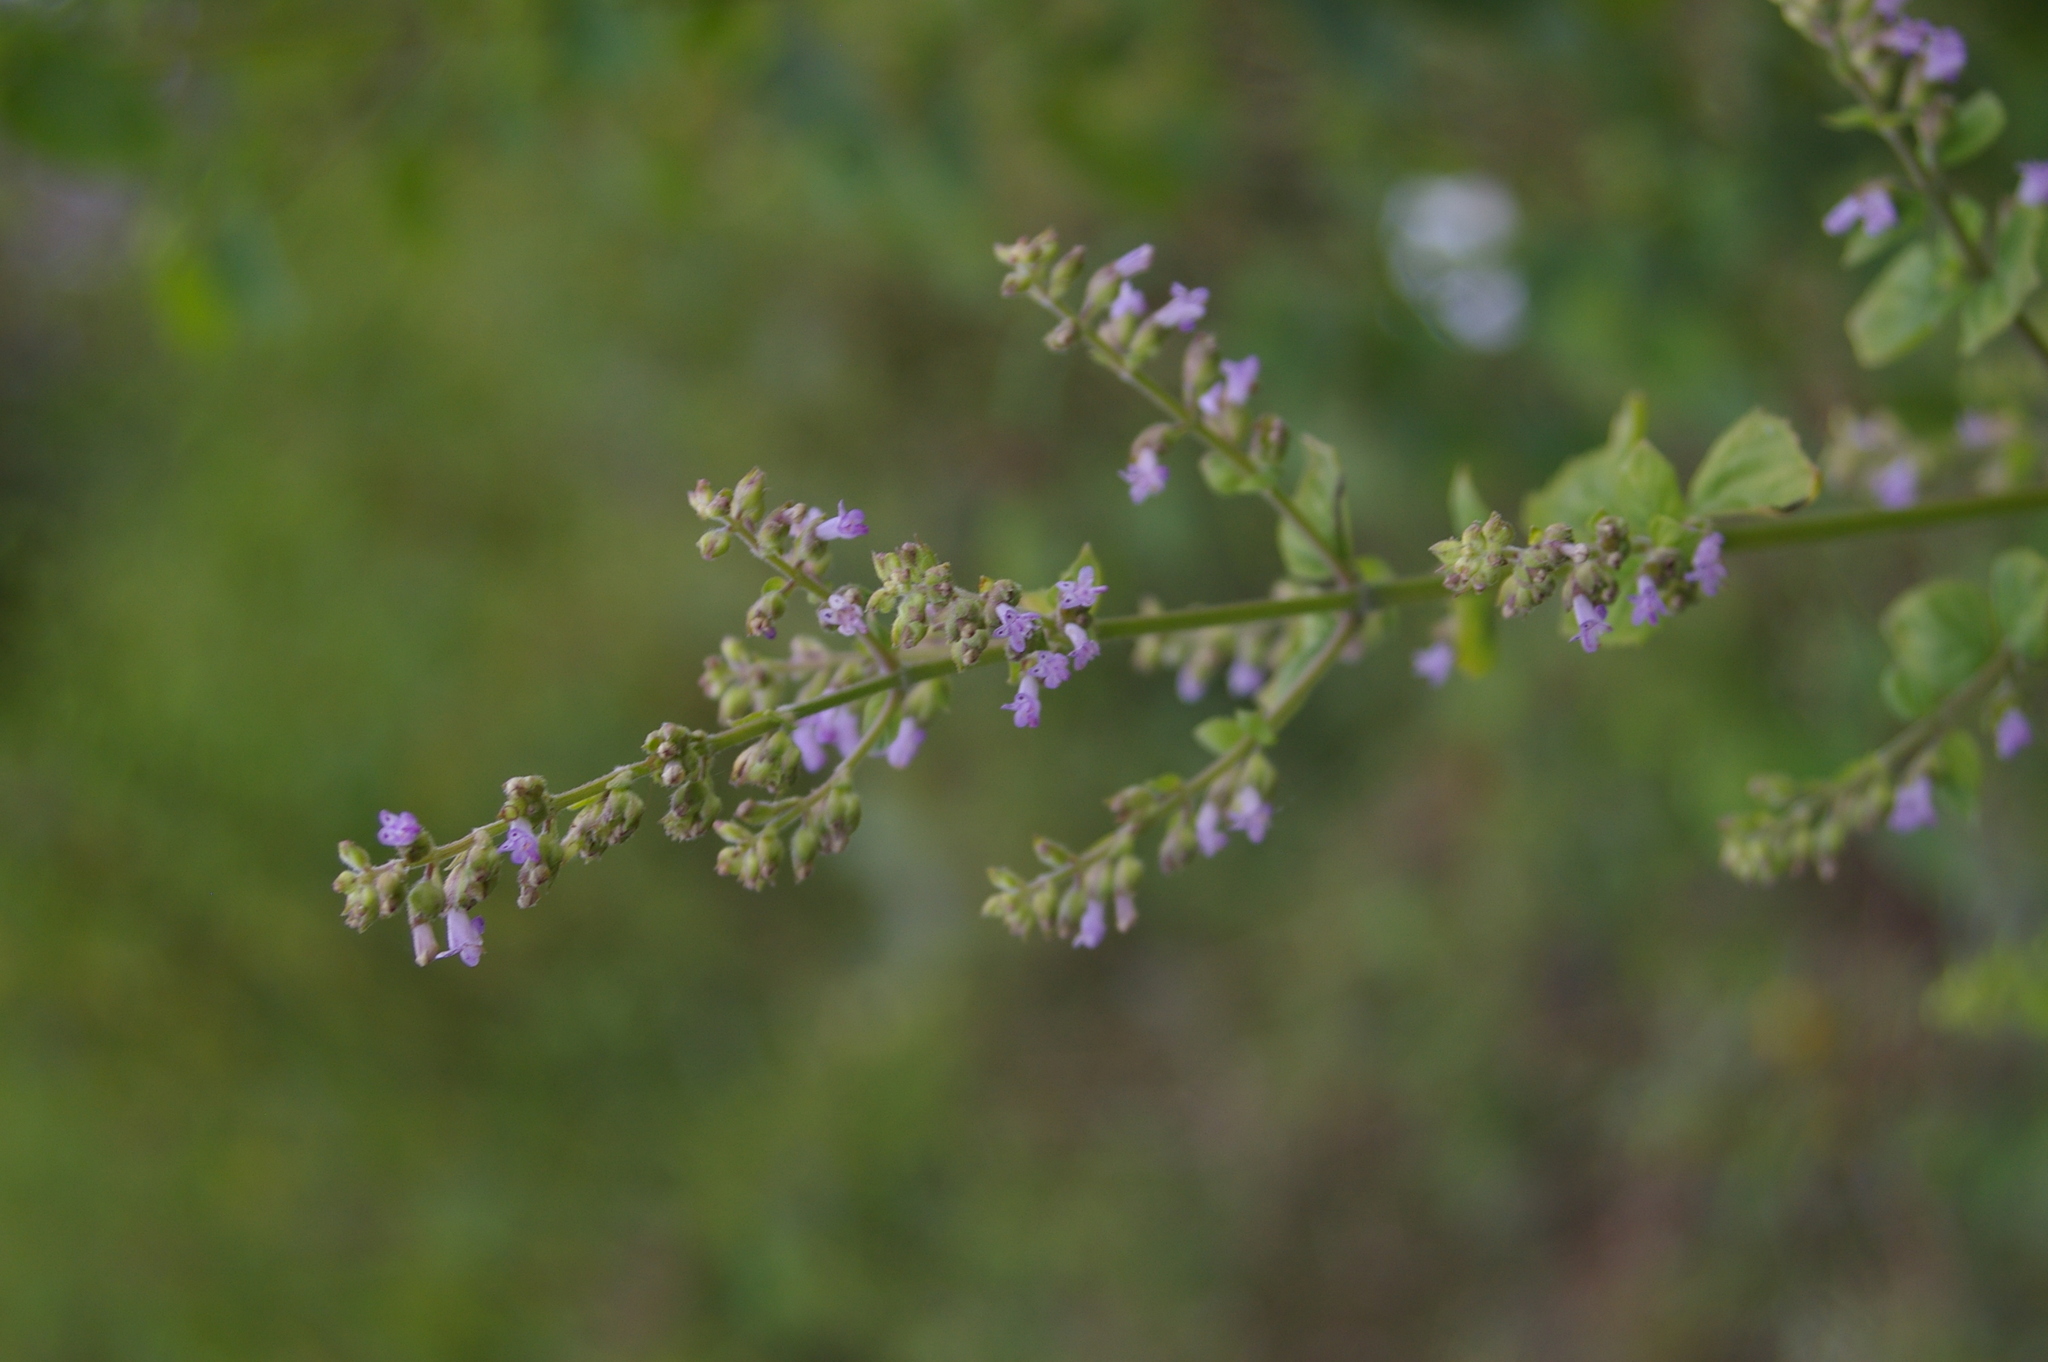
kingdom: Plantae
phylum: Tracheophyta
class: Magnoliopsida
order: Lamiales
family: Lamiaceae
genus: Cantinoa
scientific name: Cantinoa mutabilis
